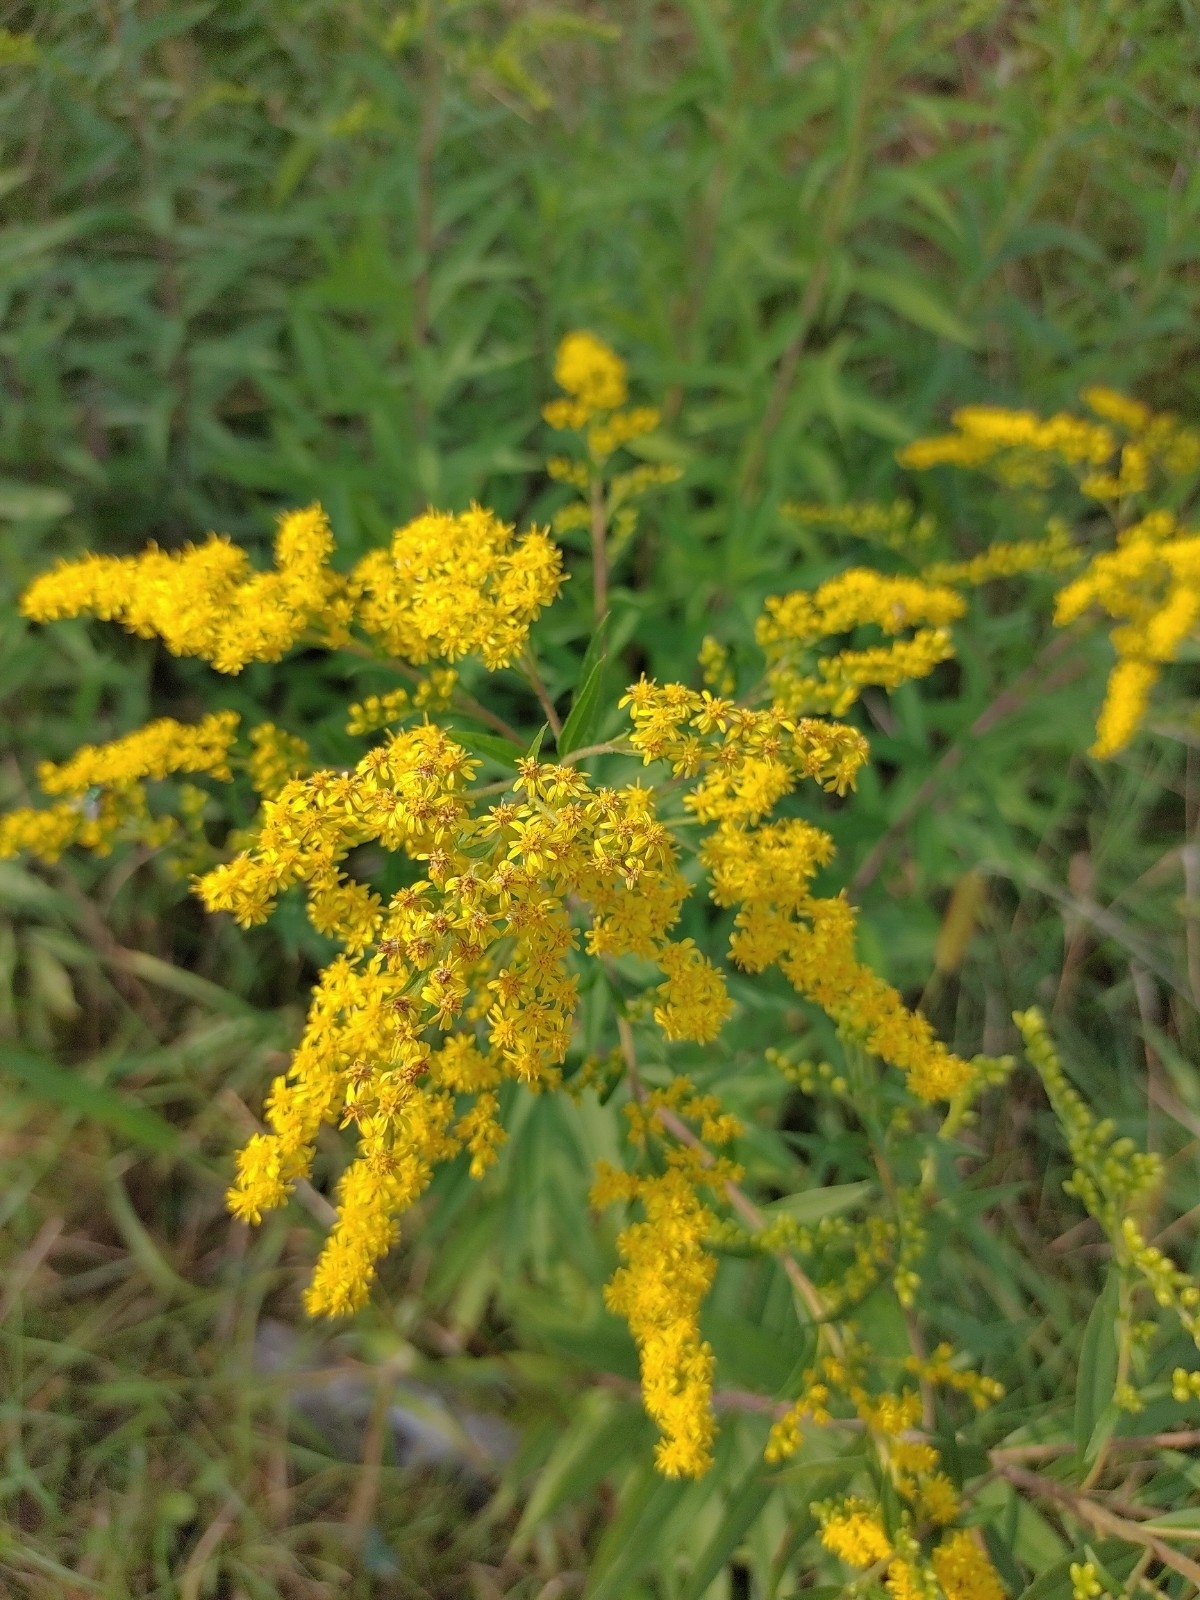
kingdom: Plantae
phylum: Tracheophyta
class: Magnoliopsida
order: Asterales
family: Asteraceae
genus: Solidago
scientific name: Solidago canadensis
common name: Canada goldenrod
